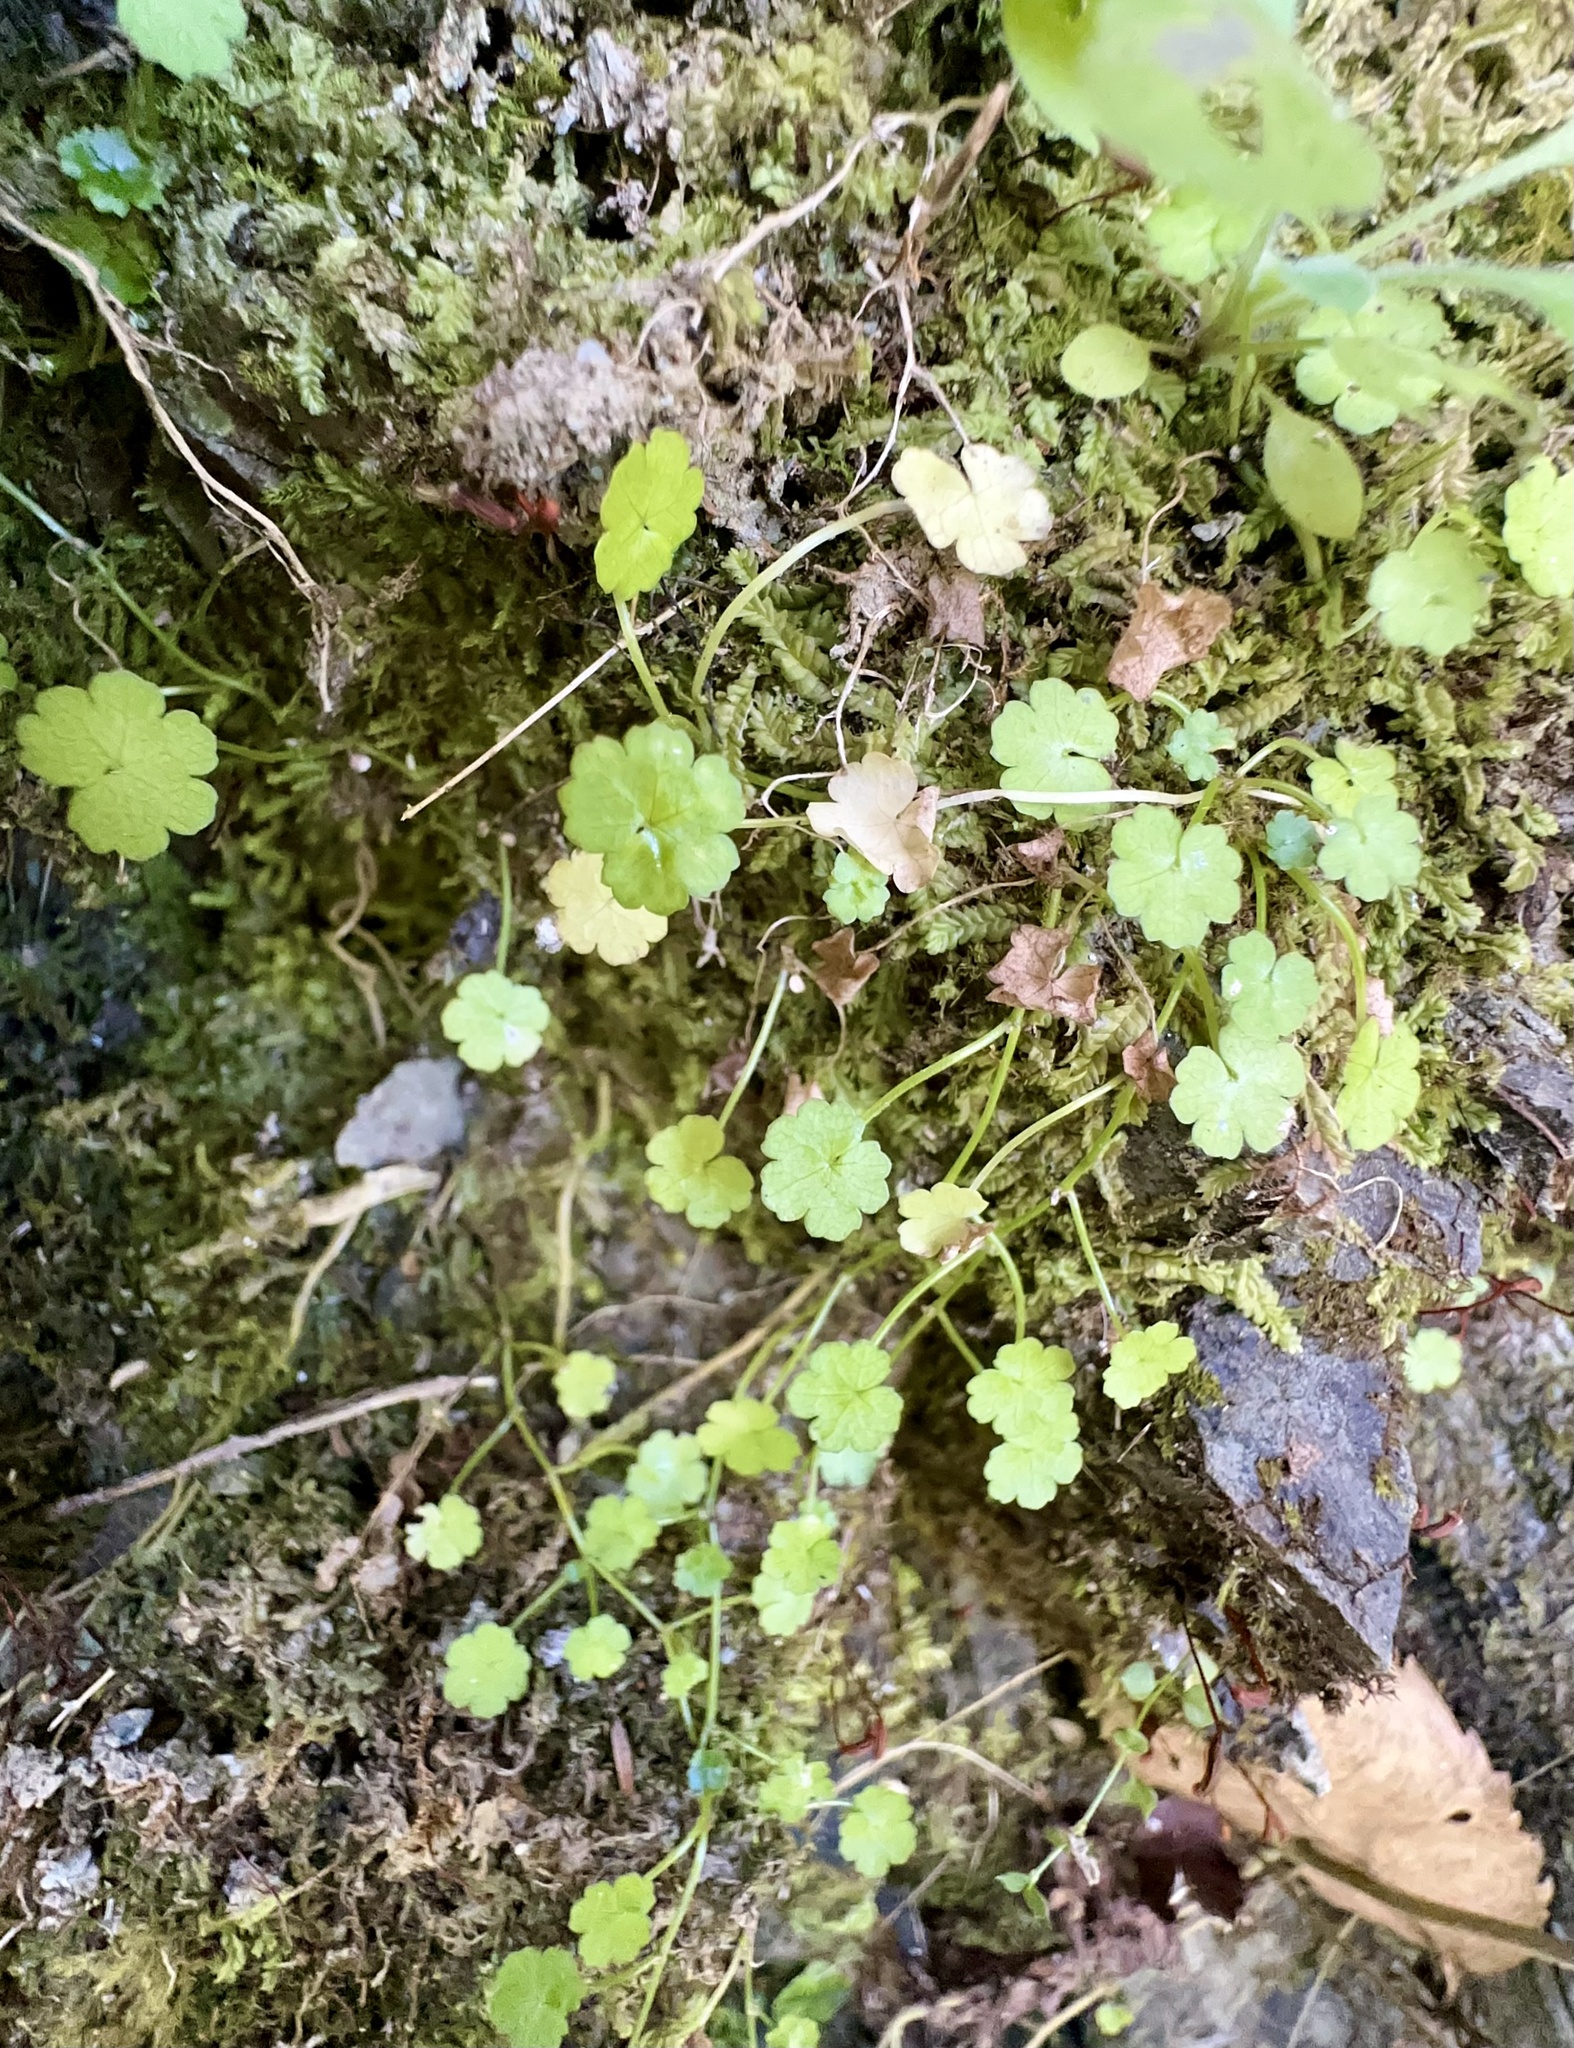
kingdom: Plantae
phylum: Tracheophyta
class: Magnoliopsida
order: Apiales
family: Araliaceae
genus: Hydrocotyle
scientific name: Hydrocotyle heteromeria
